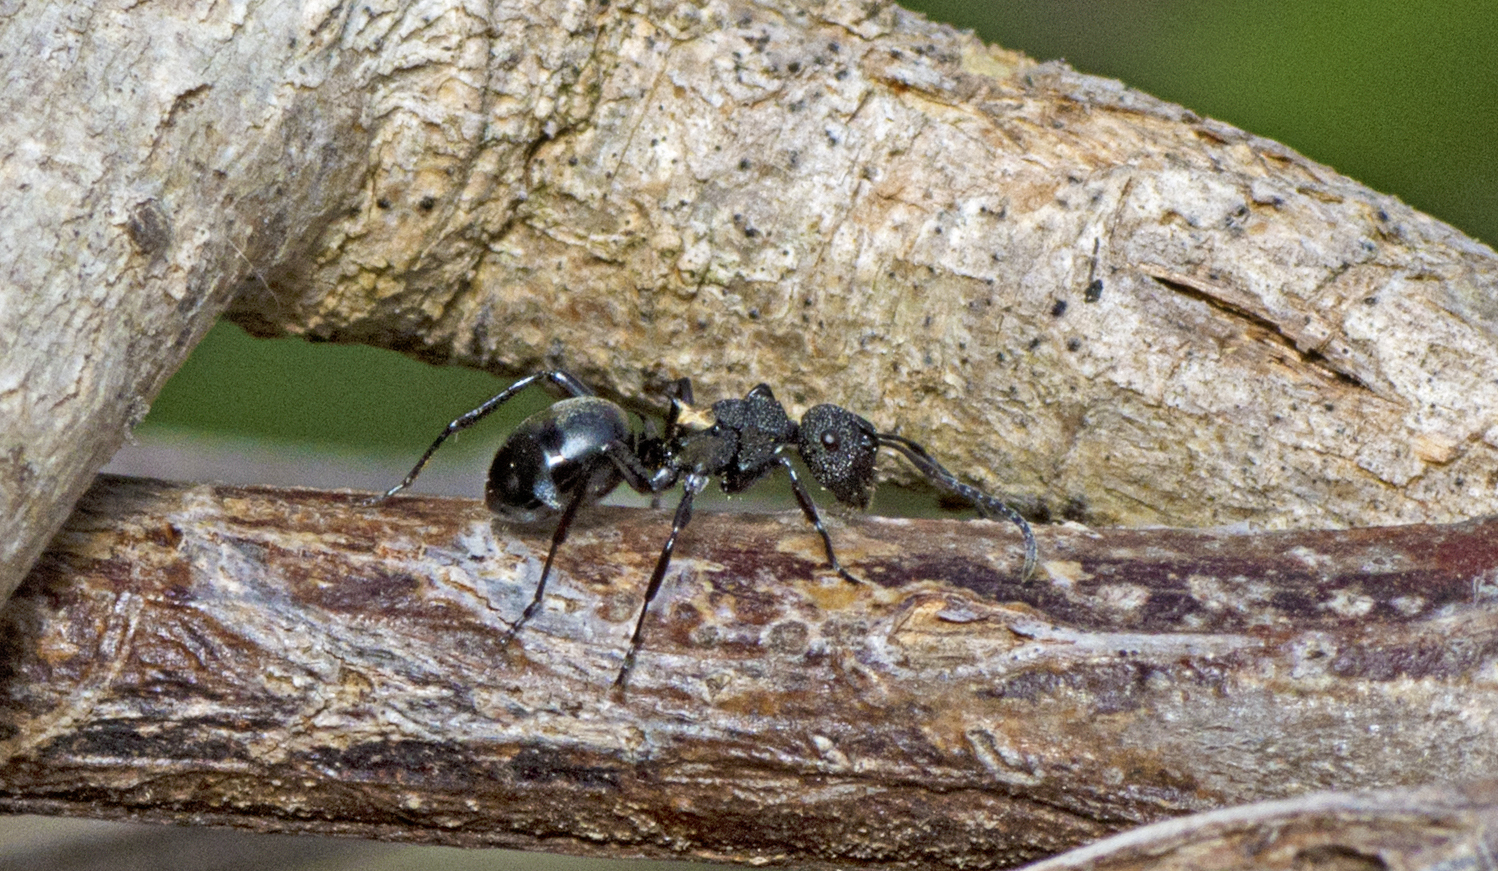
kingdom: Animalia
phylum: Arthropoda
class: Insecta
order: Hymenoptera
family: Formicidae
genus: Polyrhachis
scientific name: Polyrhachis machaon
